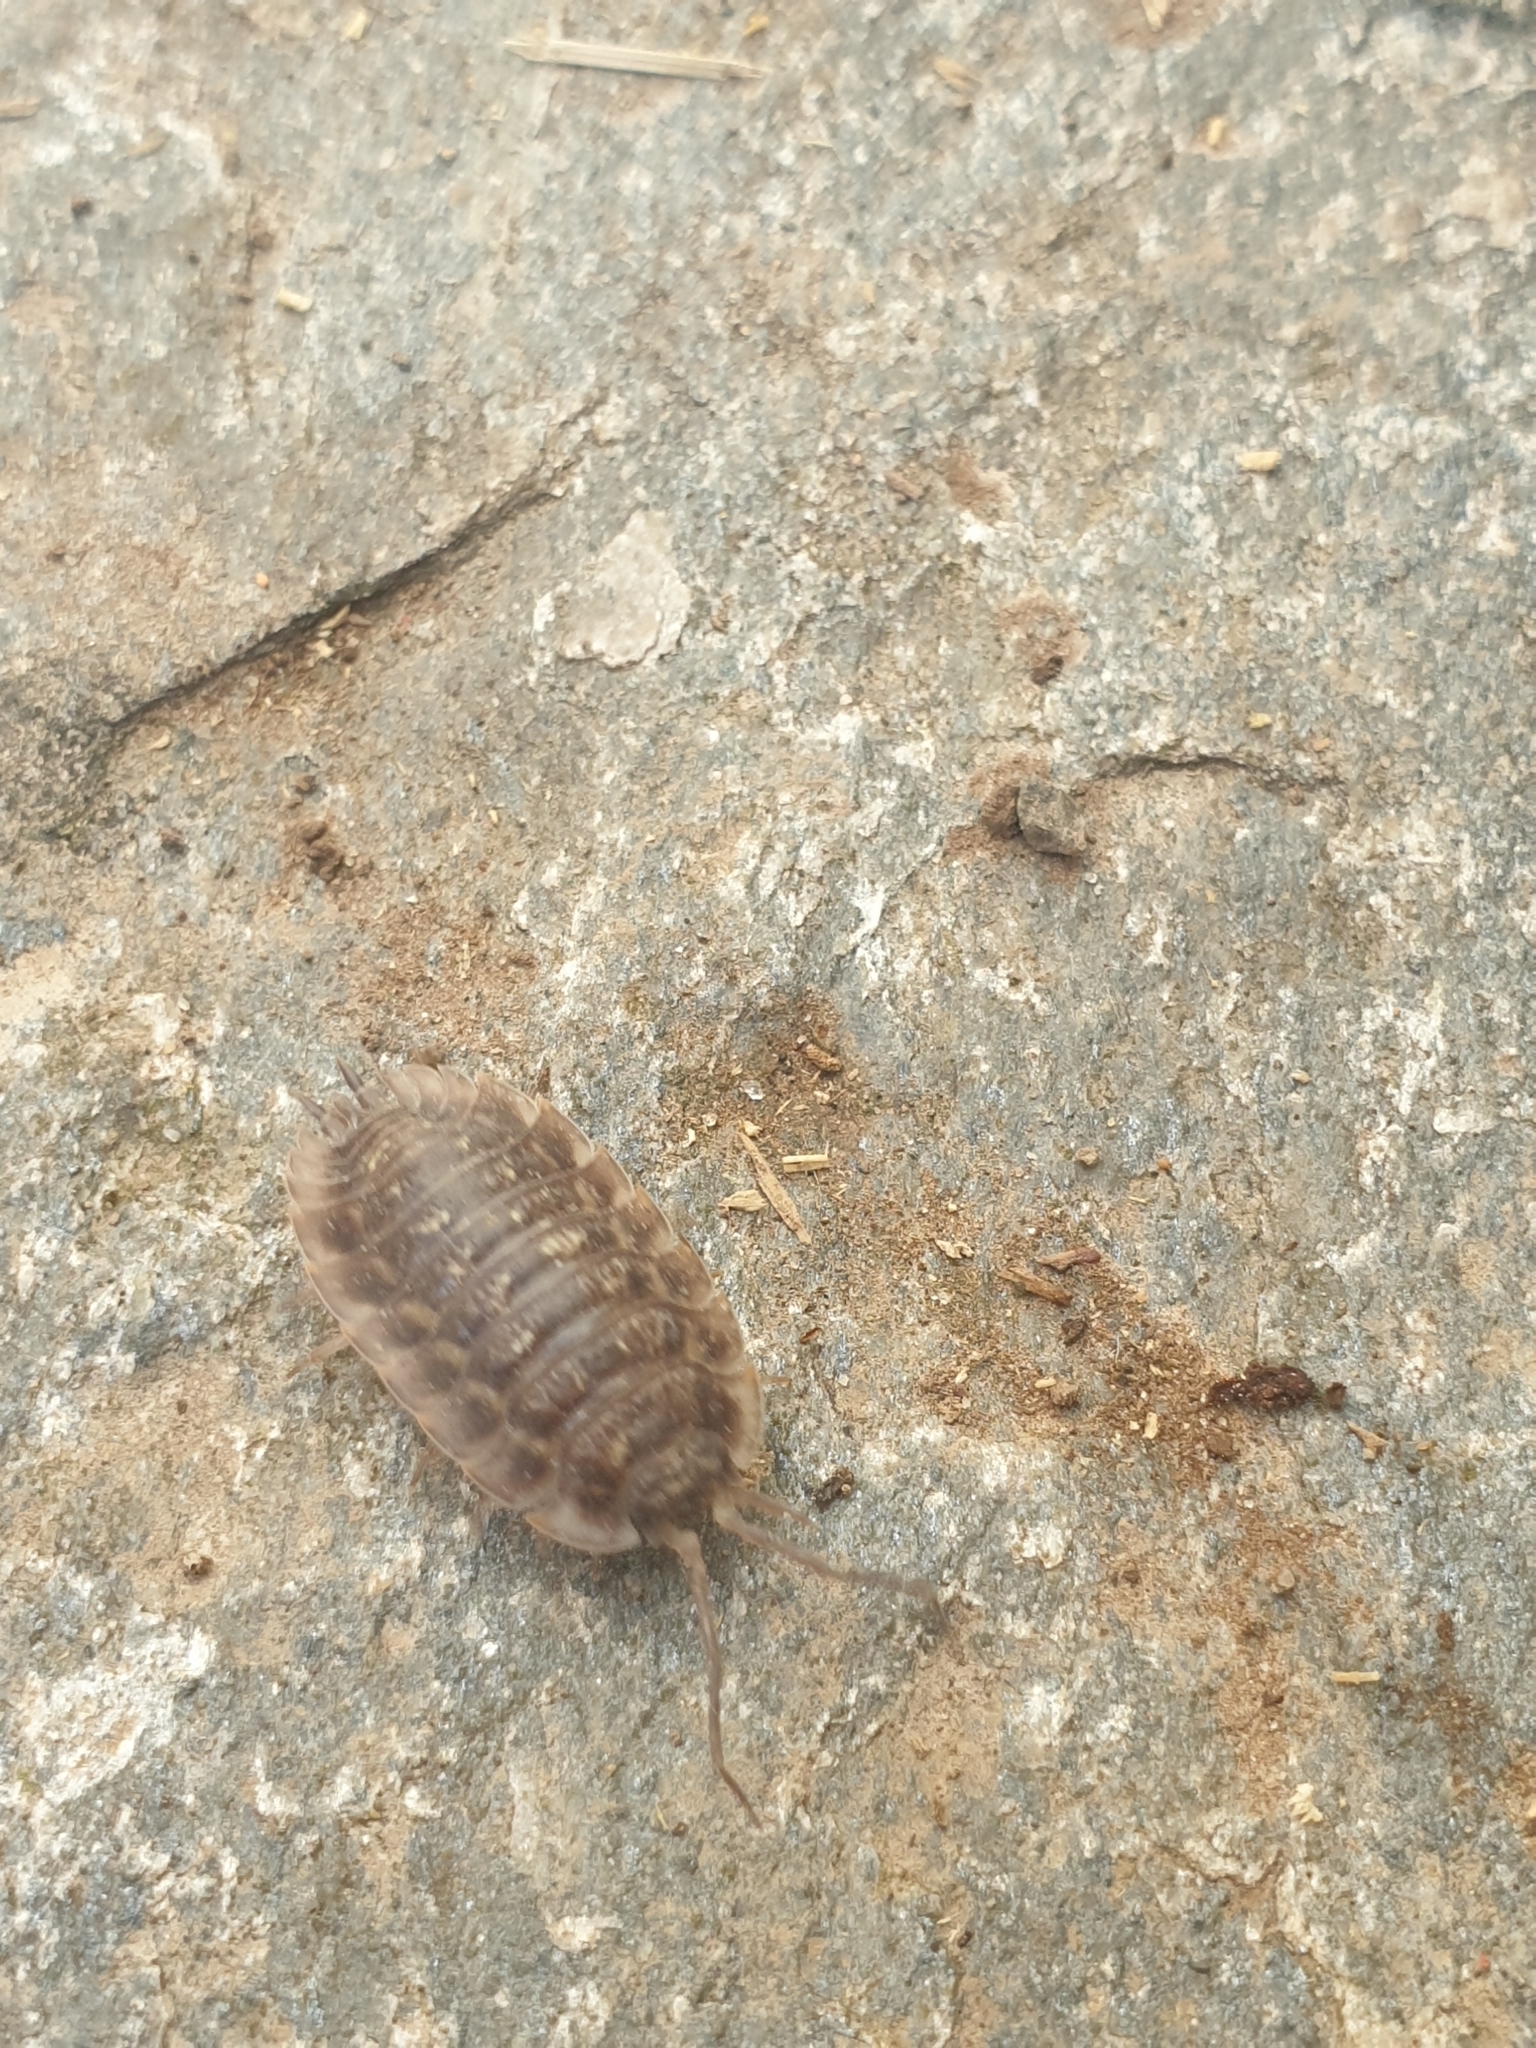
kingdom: Animalia
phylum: Arthropoda
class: Malacostraca
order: Isopoda
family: Oniscidae
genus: Oniscus
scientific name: Oniscus asellus
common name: Common shiny woodlouse
